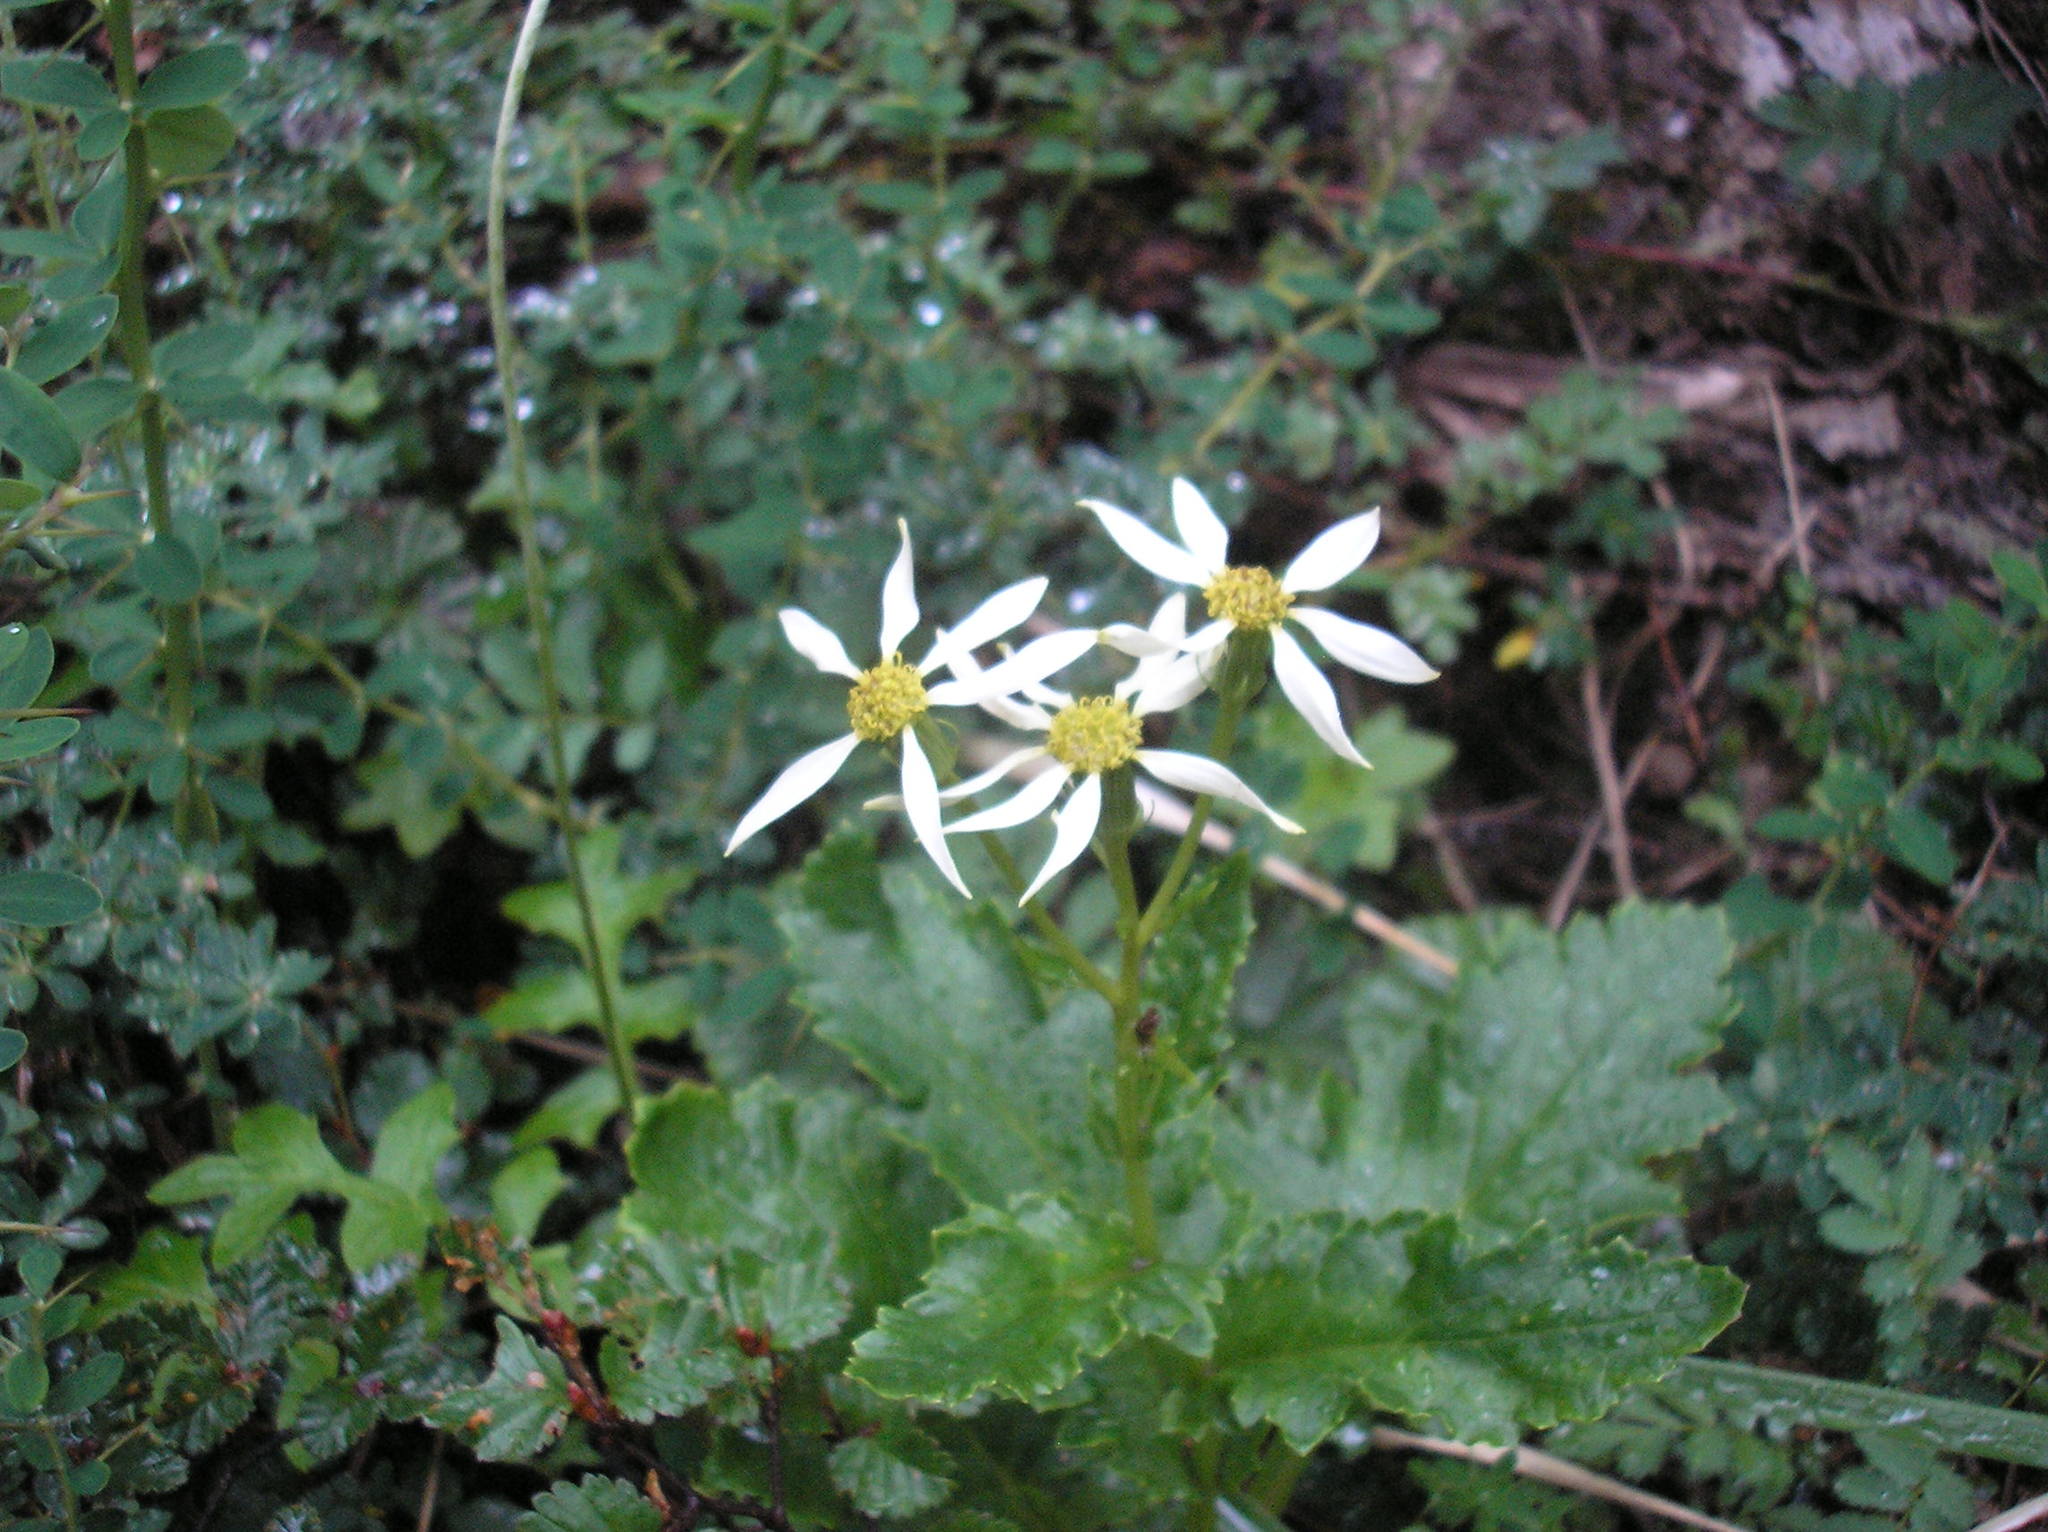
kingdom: Plantae
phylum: Tracheophyta
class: Magnoliopsida
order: Asterales
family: Asteraceae
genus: Iocenes
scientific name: Iocenes virens
